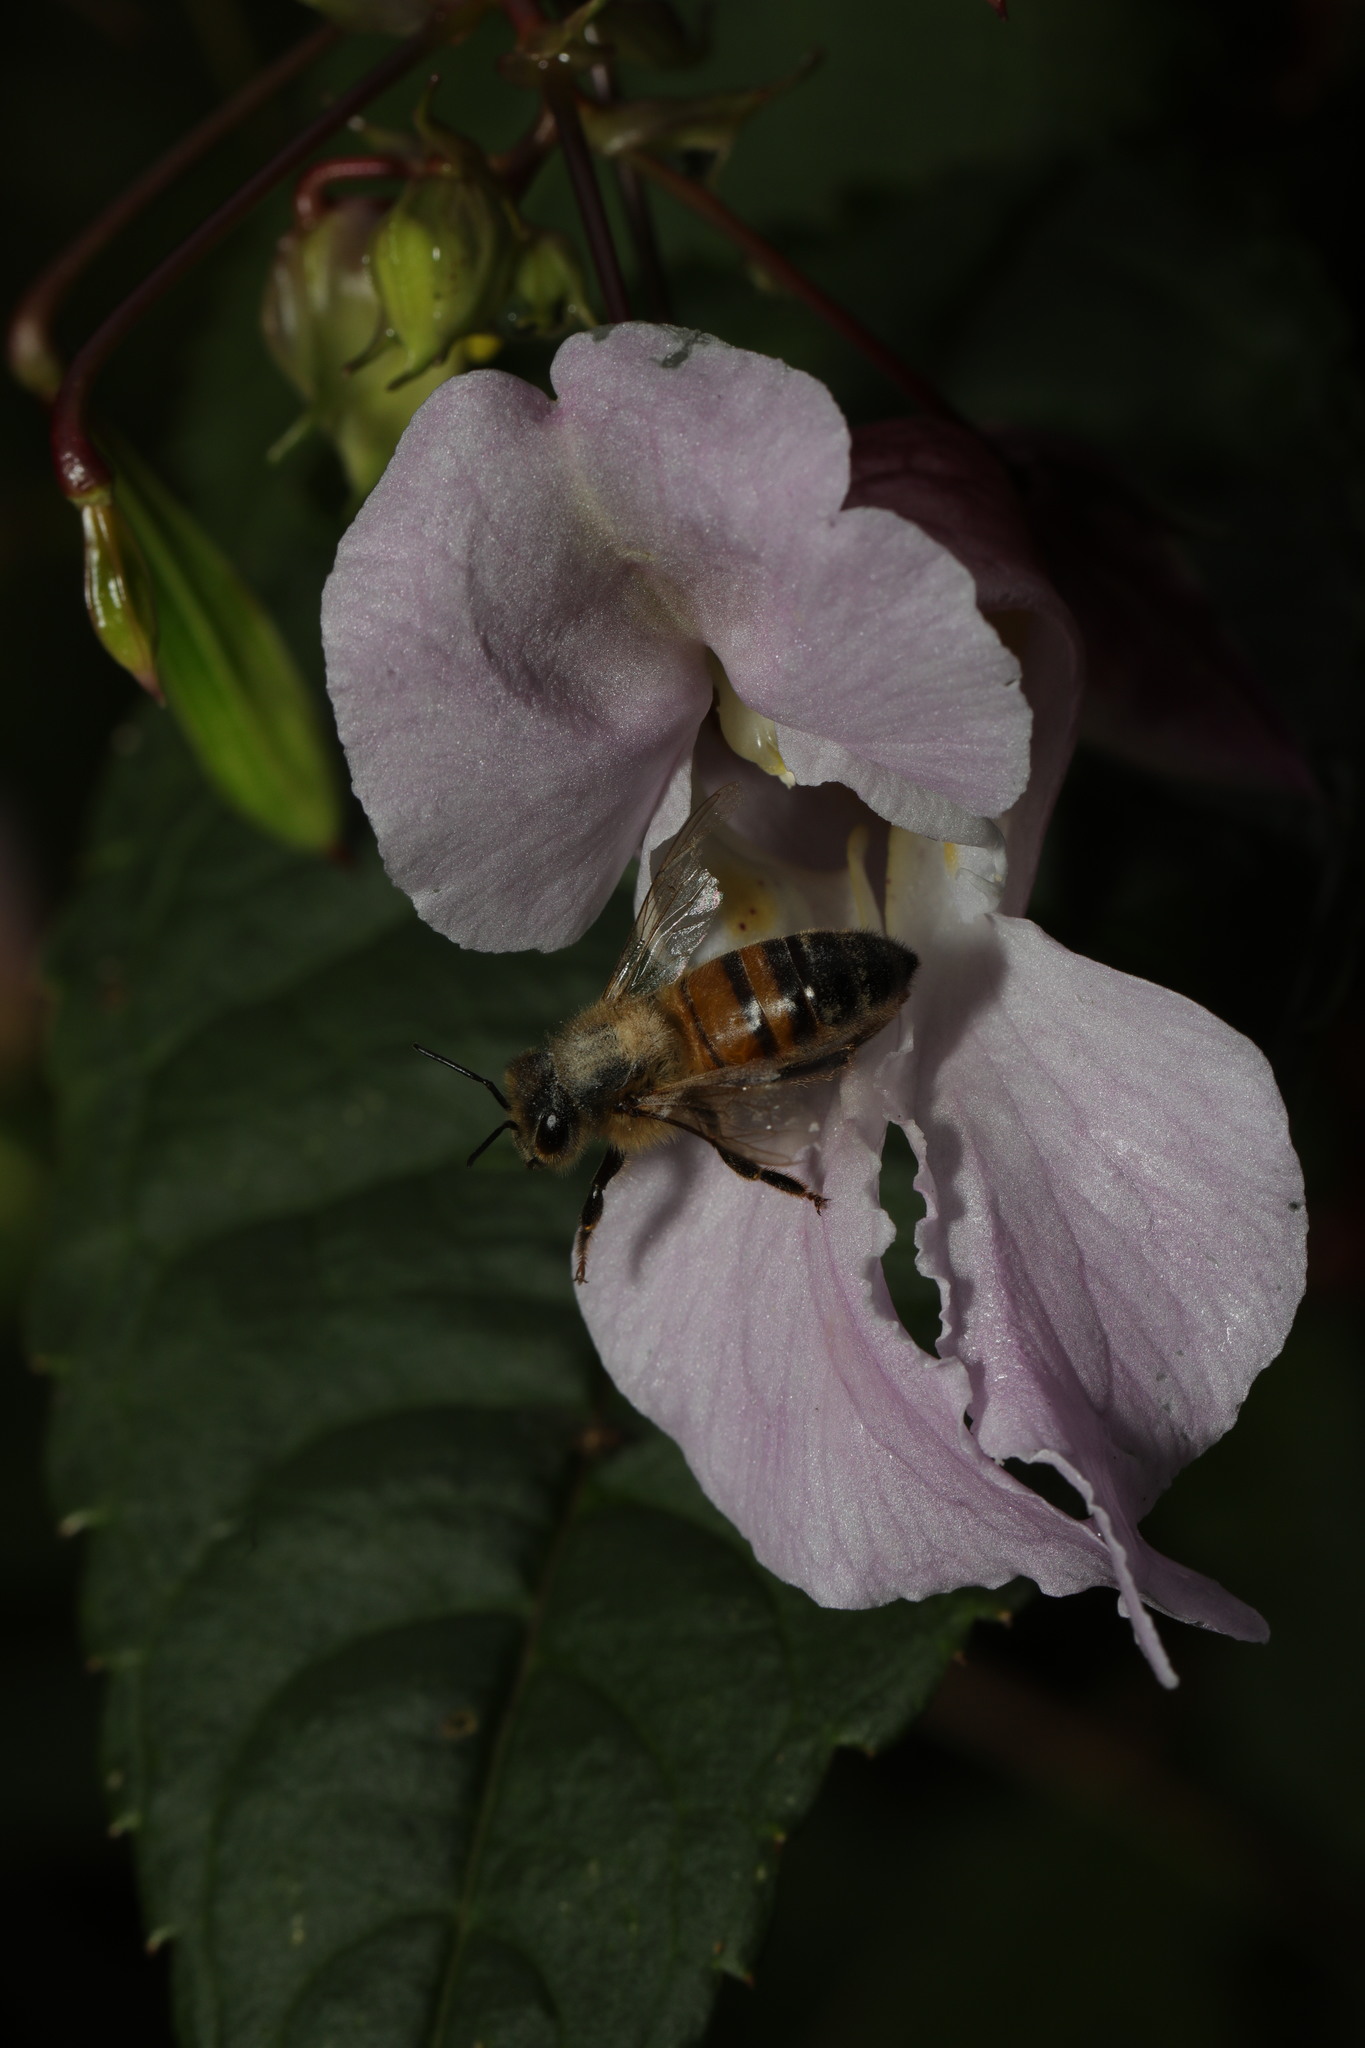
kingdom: Animalia
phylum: Arthropoda
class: Insecta
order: Hymenoptera
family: Apidae
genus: Apis
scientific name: Apis mellifera
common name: Honey bee
